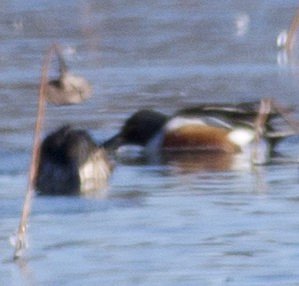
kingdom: Animalia
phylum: Chordata
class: Aves
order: Anseriformes
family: Anatidae
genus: Spatula
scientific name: Spatula clypeata
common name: Northern shoveler
